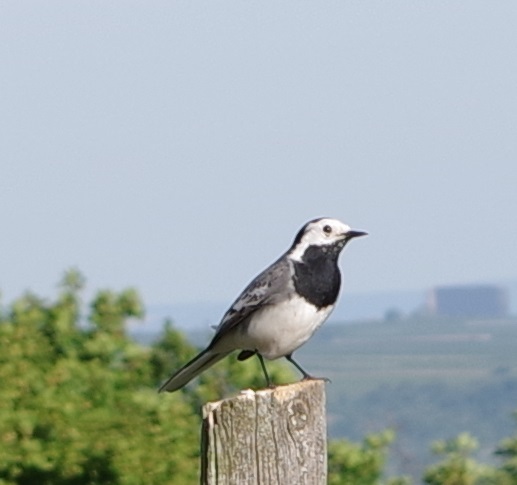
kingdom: Animalia
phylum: Chordata
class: Aves
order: Passeriformes
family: Motacillidae
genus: Motacilla
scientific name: Motacilla alba
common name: White wagtail
